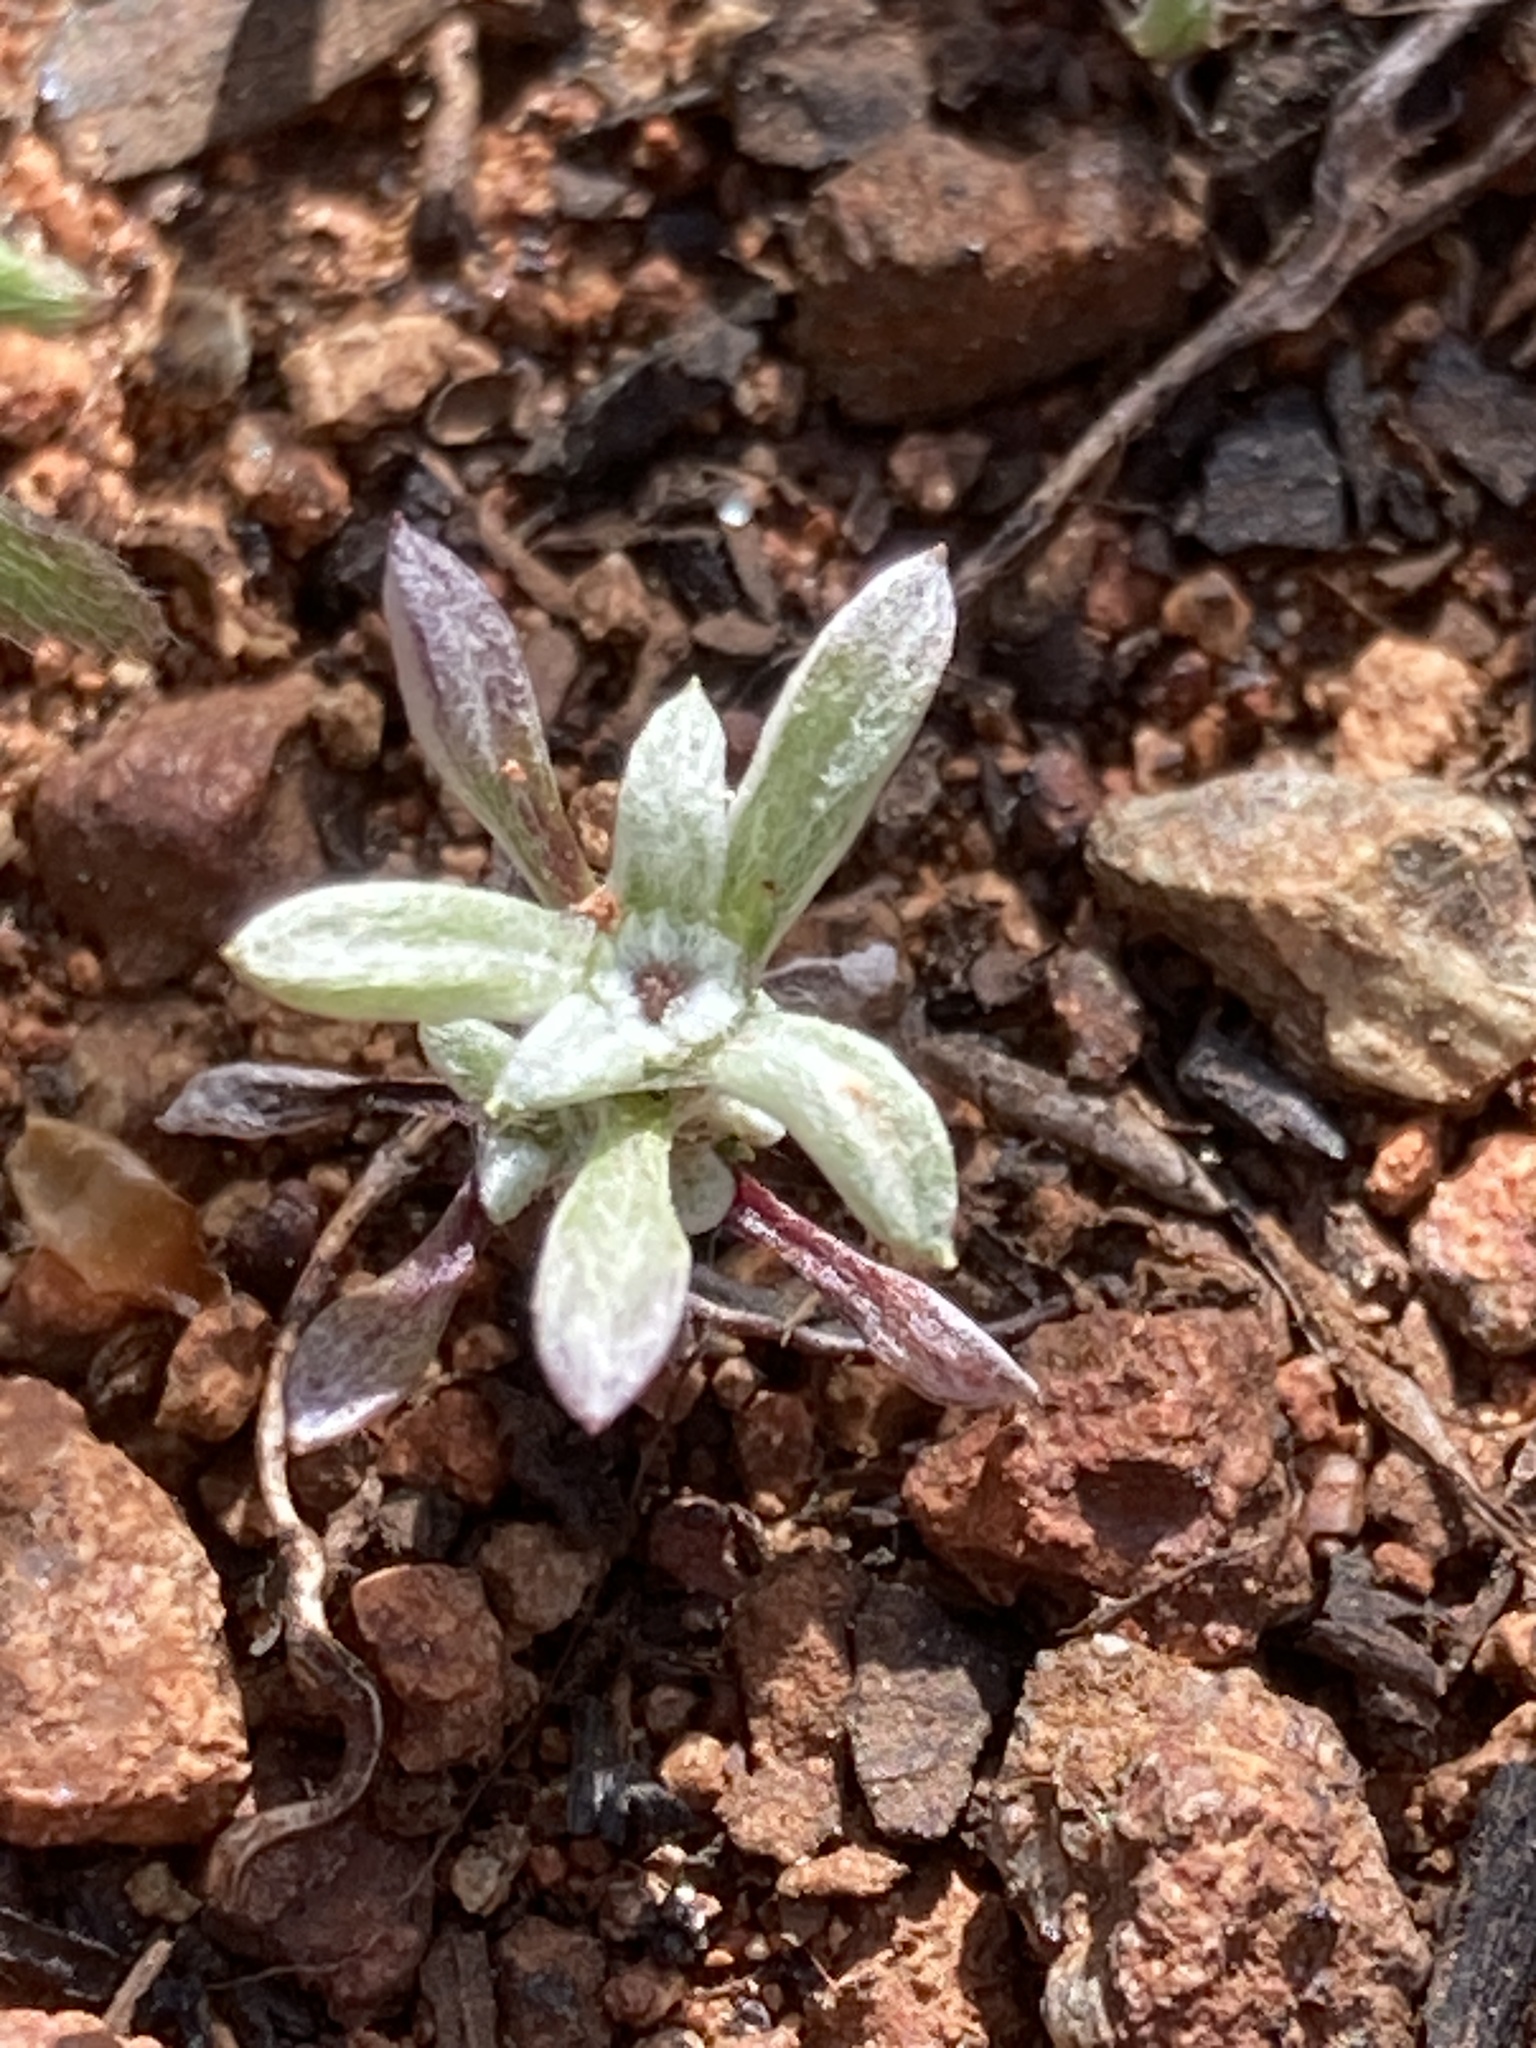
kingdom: Plantae
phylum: Tracheophyta
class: Magnoliopsida
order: Asterales
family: Asteraceae
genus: Hesperevax
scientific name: Hesperevax acaulis
